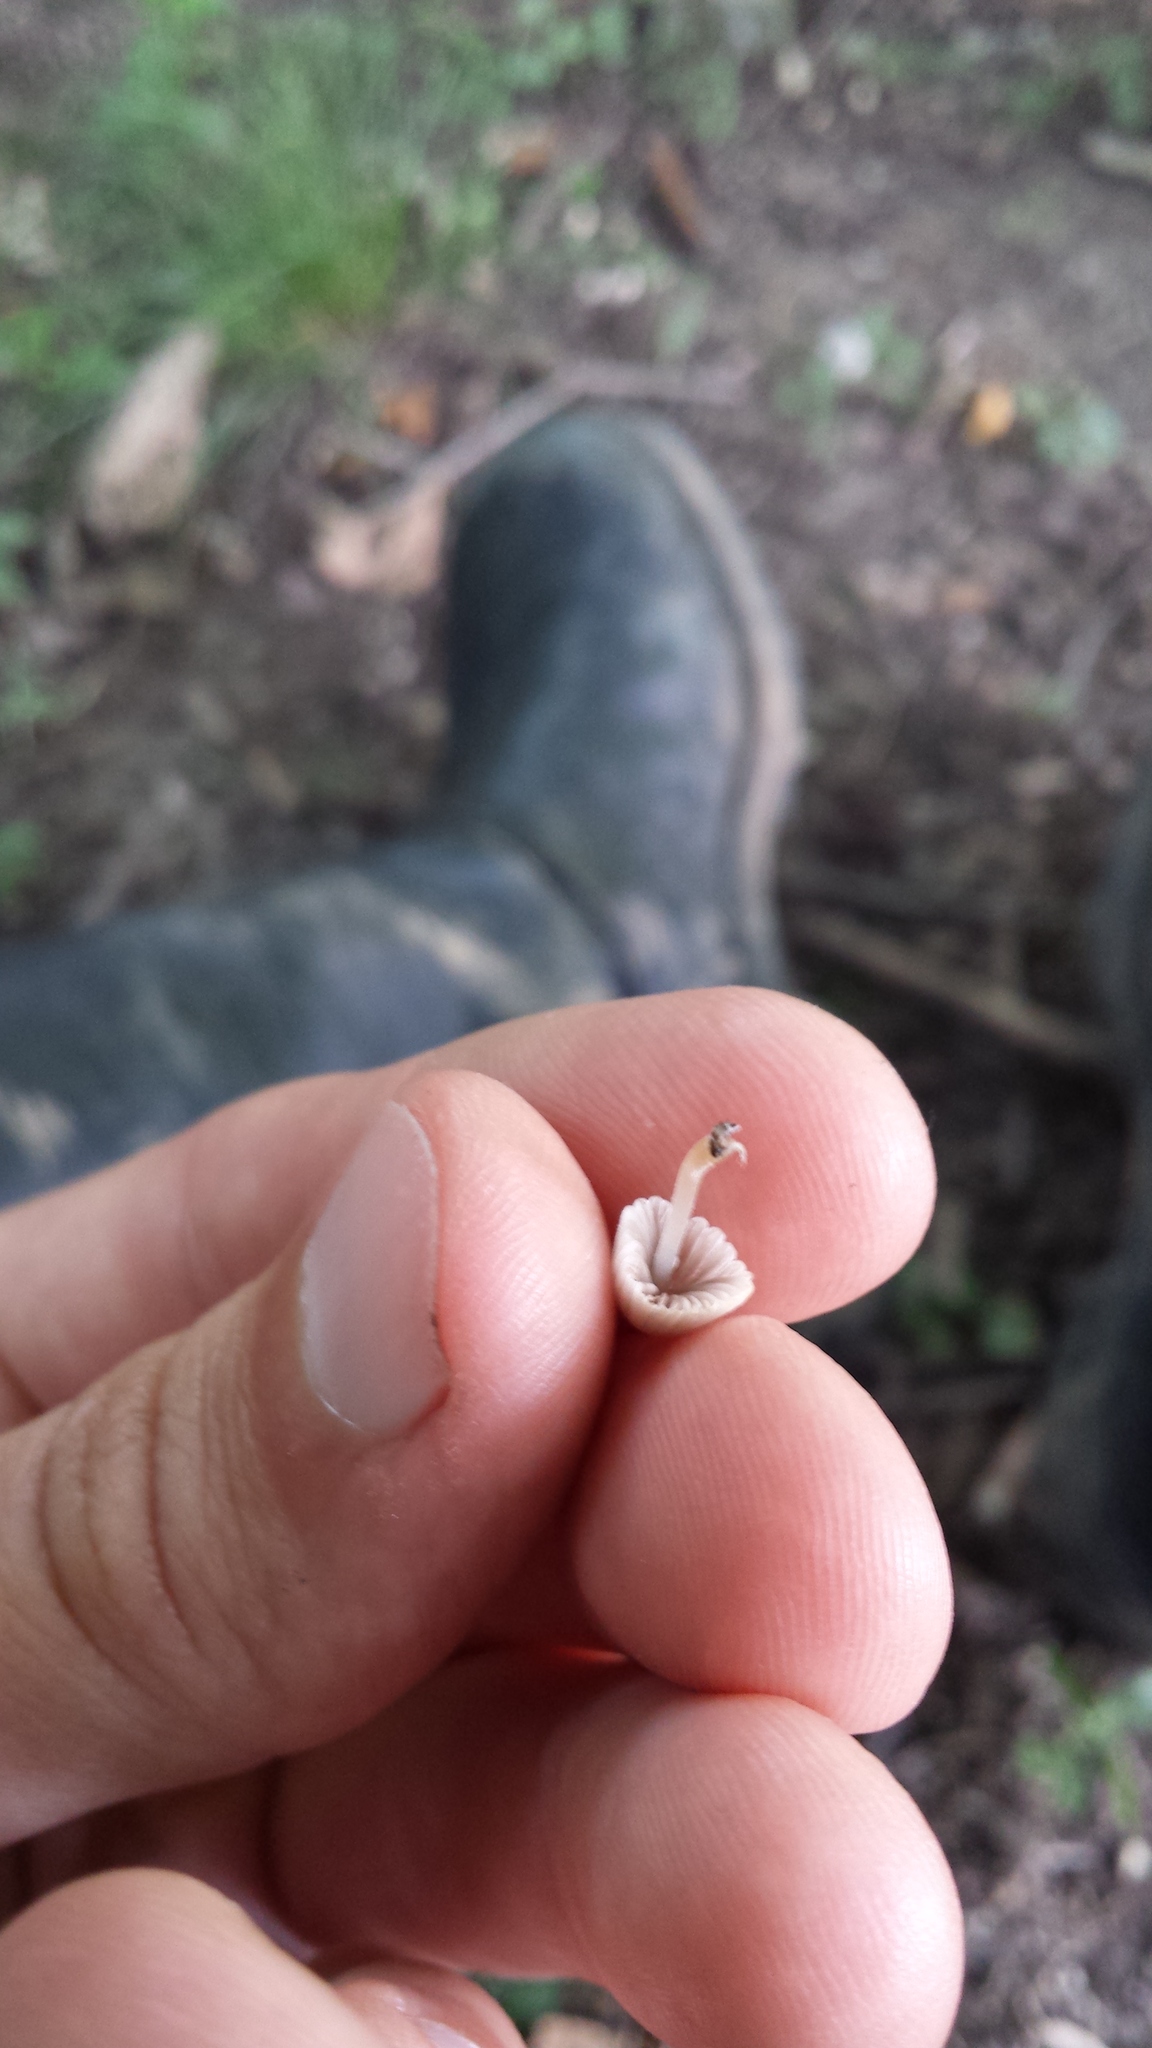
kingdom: Fungi
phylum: Basidiomycota
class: Agaricomycetes
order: Agaricales
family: Psathyrellaceae
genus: Coprinellus
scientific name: Coprinellus disseminatus
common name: Fairies' bonnets
